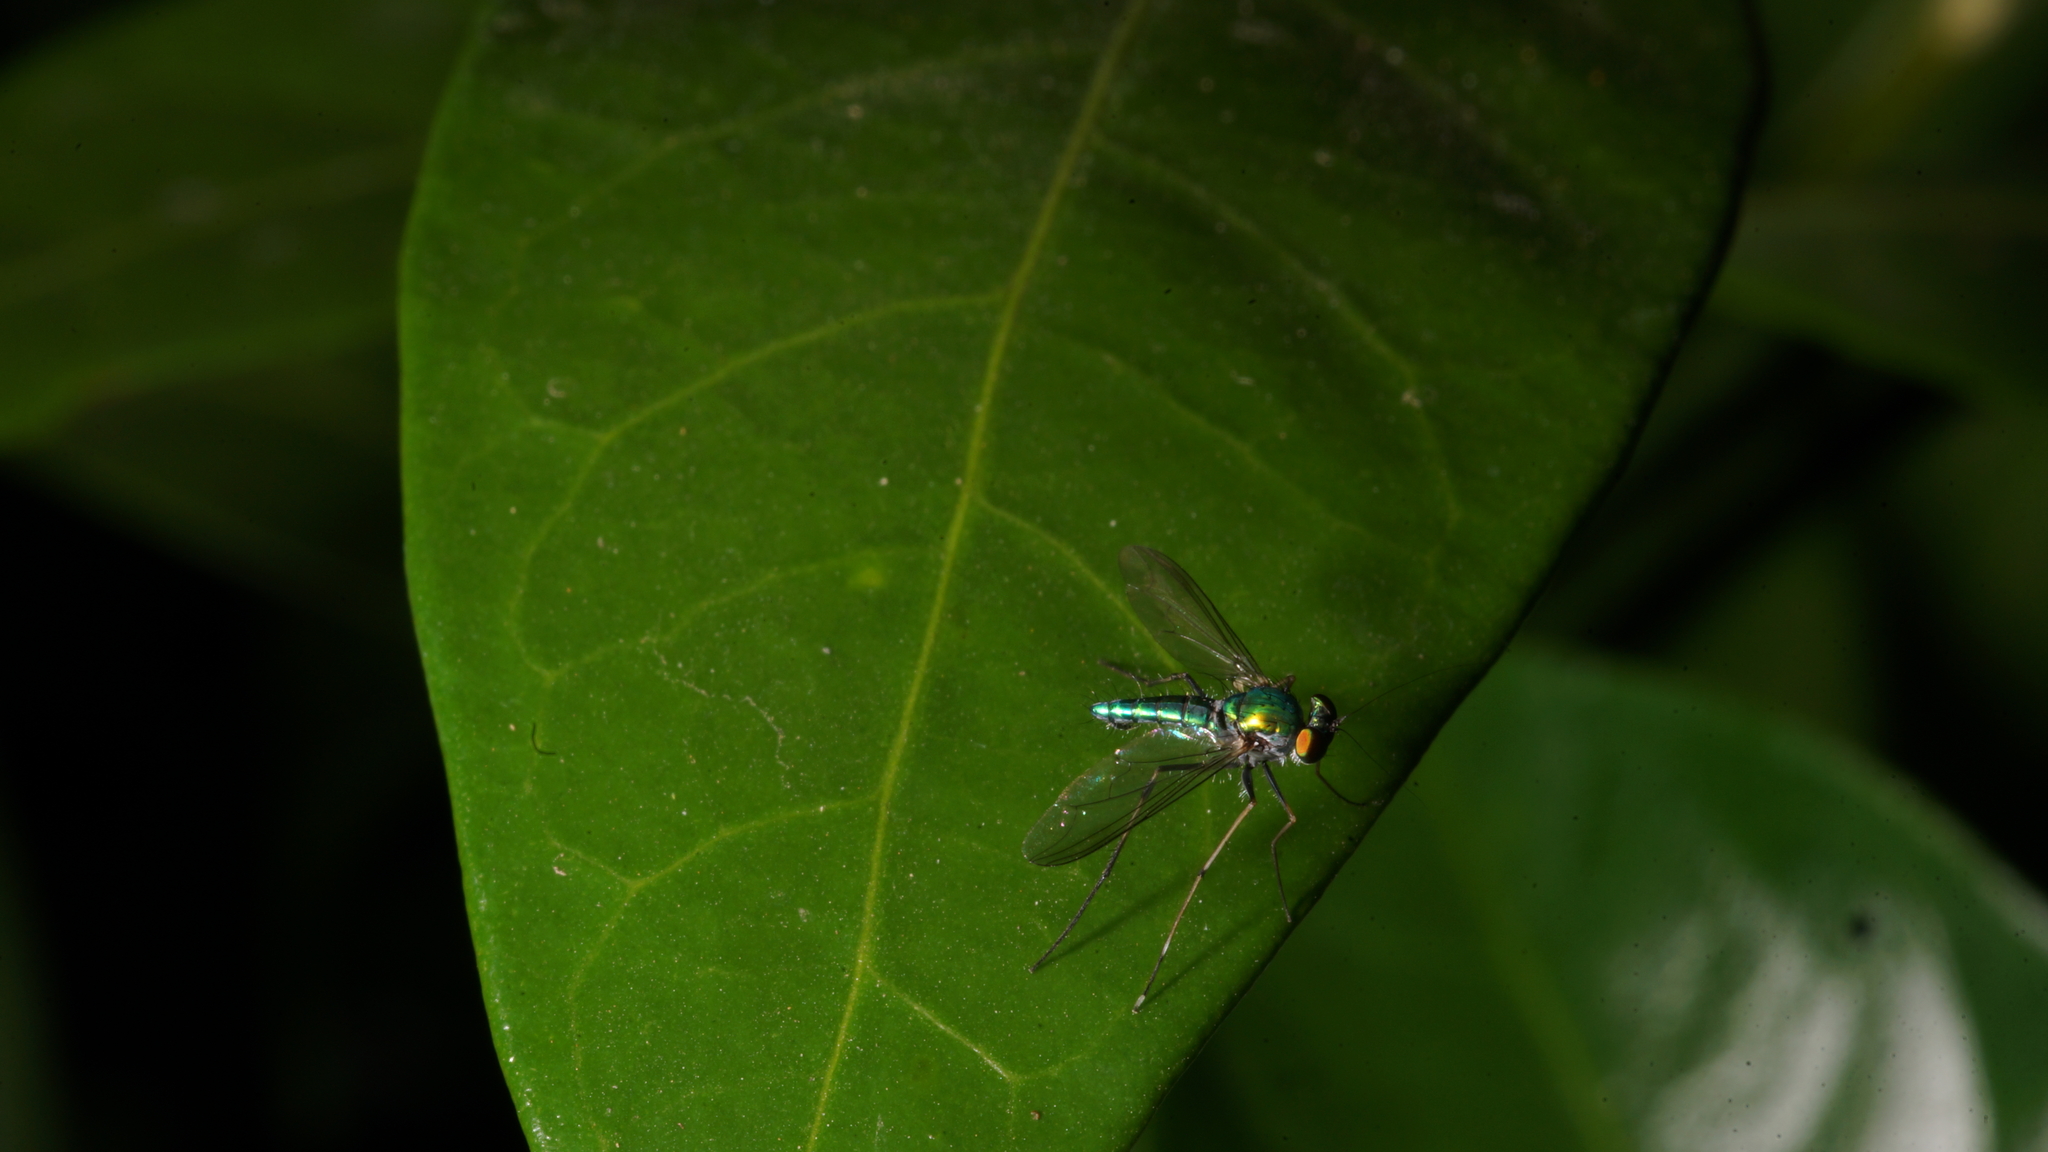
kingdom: Animalia
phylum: Arthropoda
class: Insecta
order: Diptera
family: Dolichopodidae
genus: Chrysosoma
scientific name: Chrysosoma leucopogon
